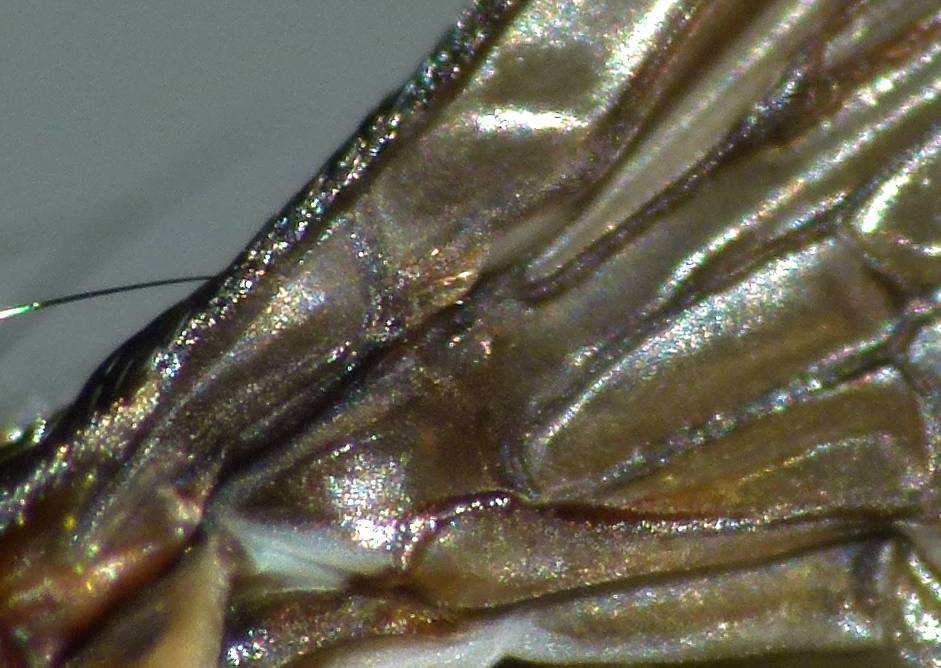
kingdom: Animalia
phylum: Arthropoda
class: Insecta
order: Diptera
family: Polleniidae
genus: Pollenia
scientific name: Pollenia pediculata
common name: Tufted clusterfly
